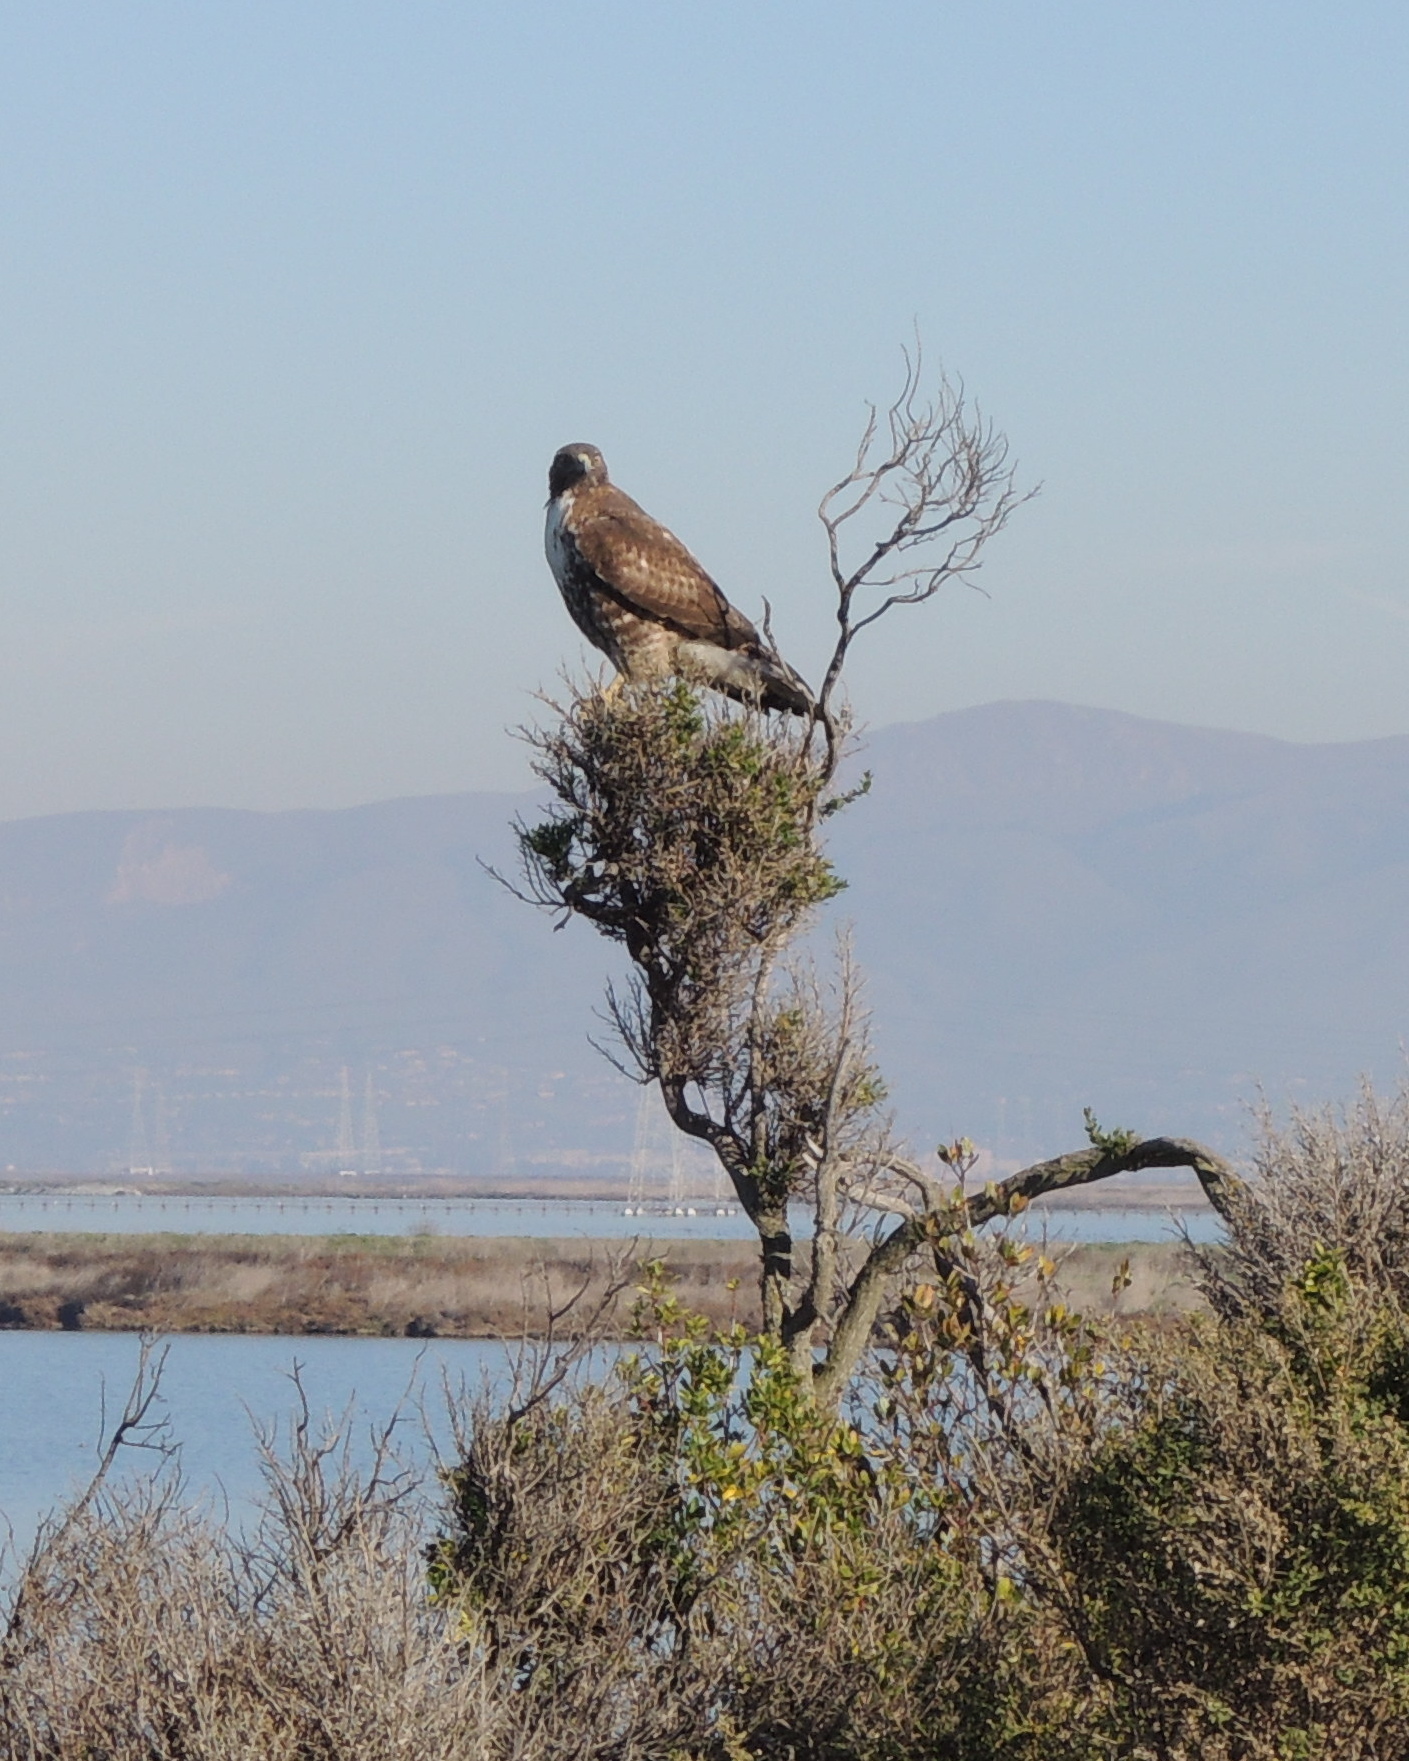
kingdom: Animalia
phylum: Chordata
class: Aves
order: Accipitriformes
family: Accipitridae
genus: Buteo
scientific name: Buteo jamaicensis
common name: Red-tailed hawk
